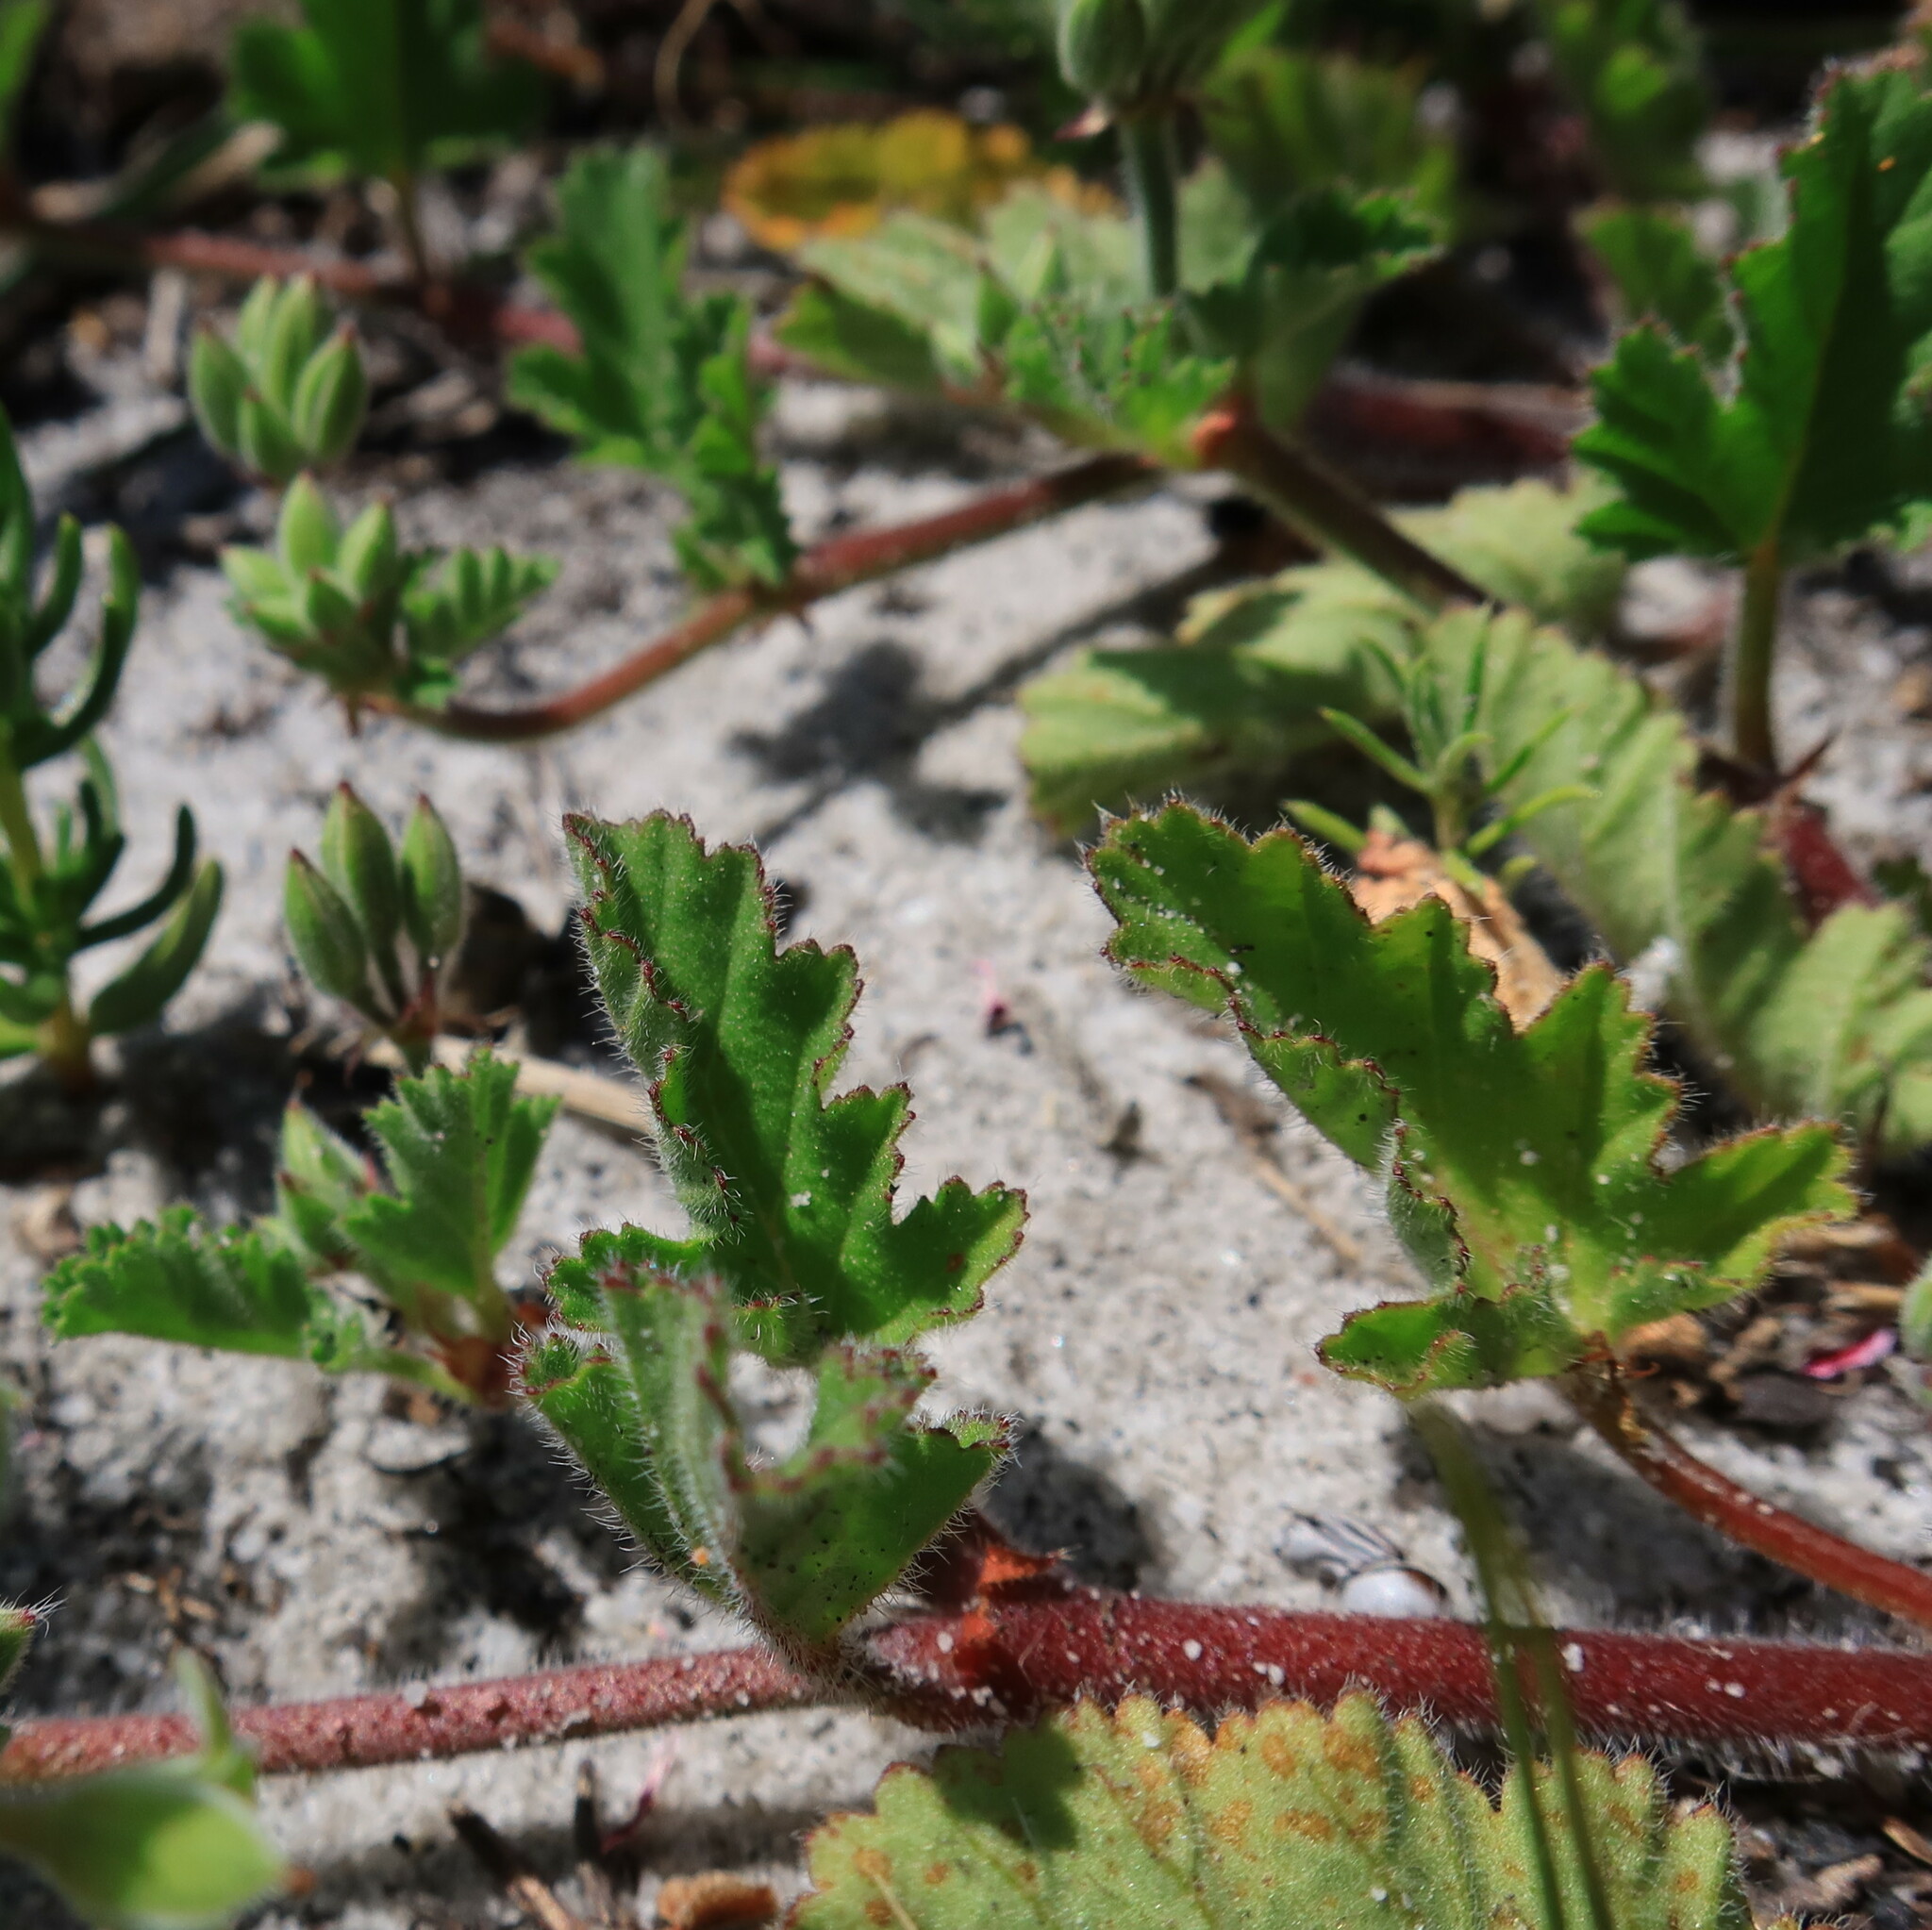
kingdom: Plantae
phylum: Tracheophyta
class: Magnoliopsida
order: Geraniales
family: Geraniaceae
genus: Pelargonium
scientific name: Pelargonium althaeoides
